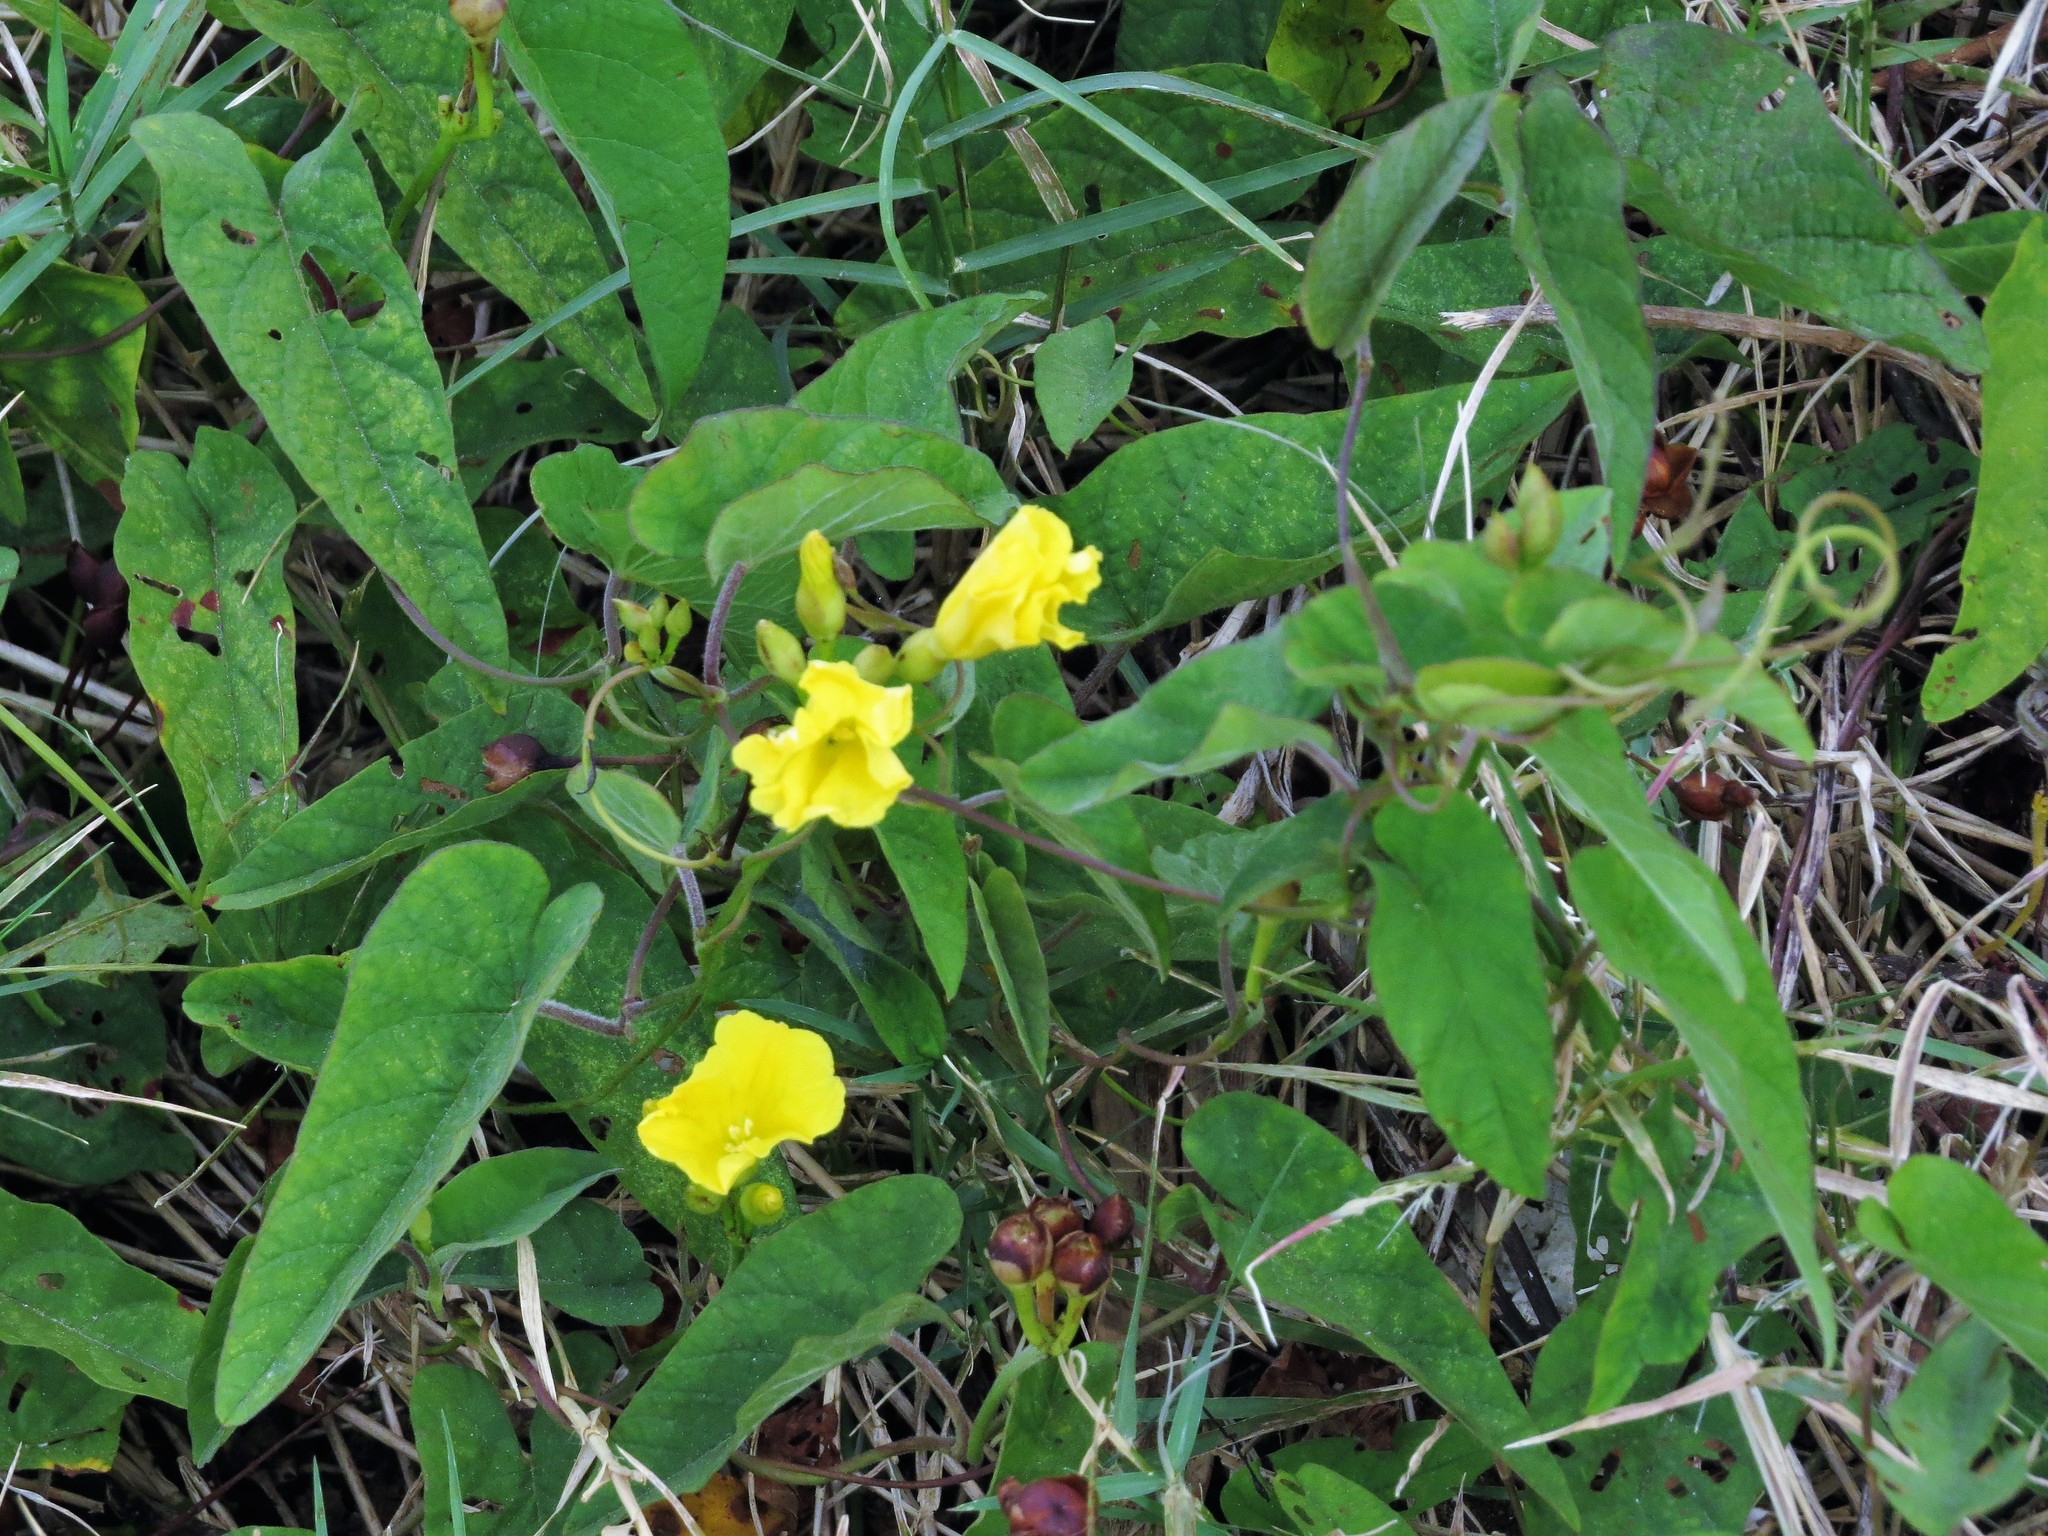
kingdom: Plantae
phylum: Tracheophyta
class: Magnoliopsida
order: Solanales
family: Convolvulaceae
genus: Camonea
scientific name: Camonea umbellata
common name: Hogvine
